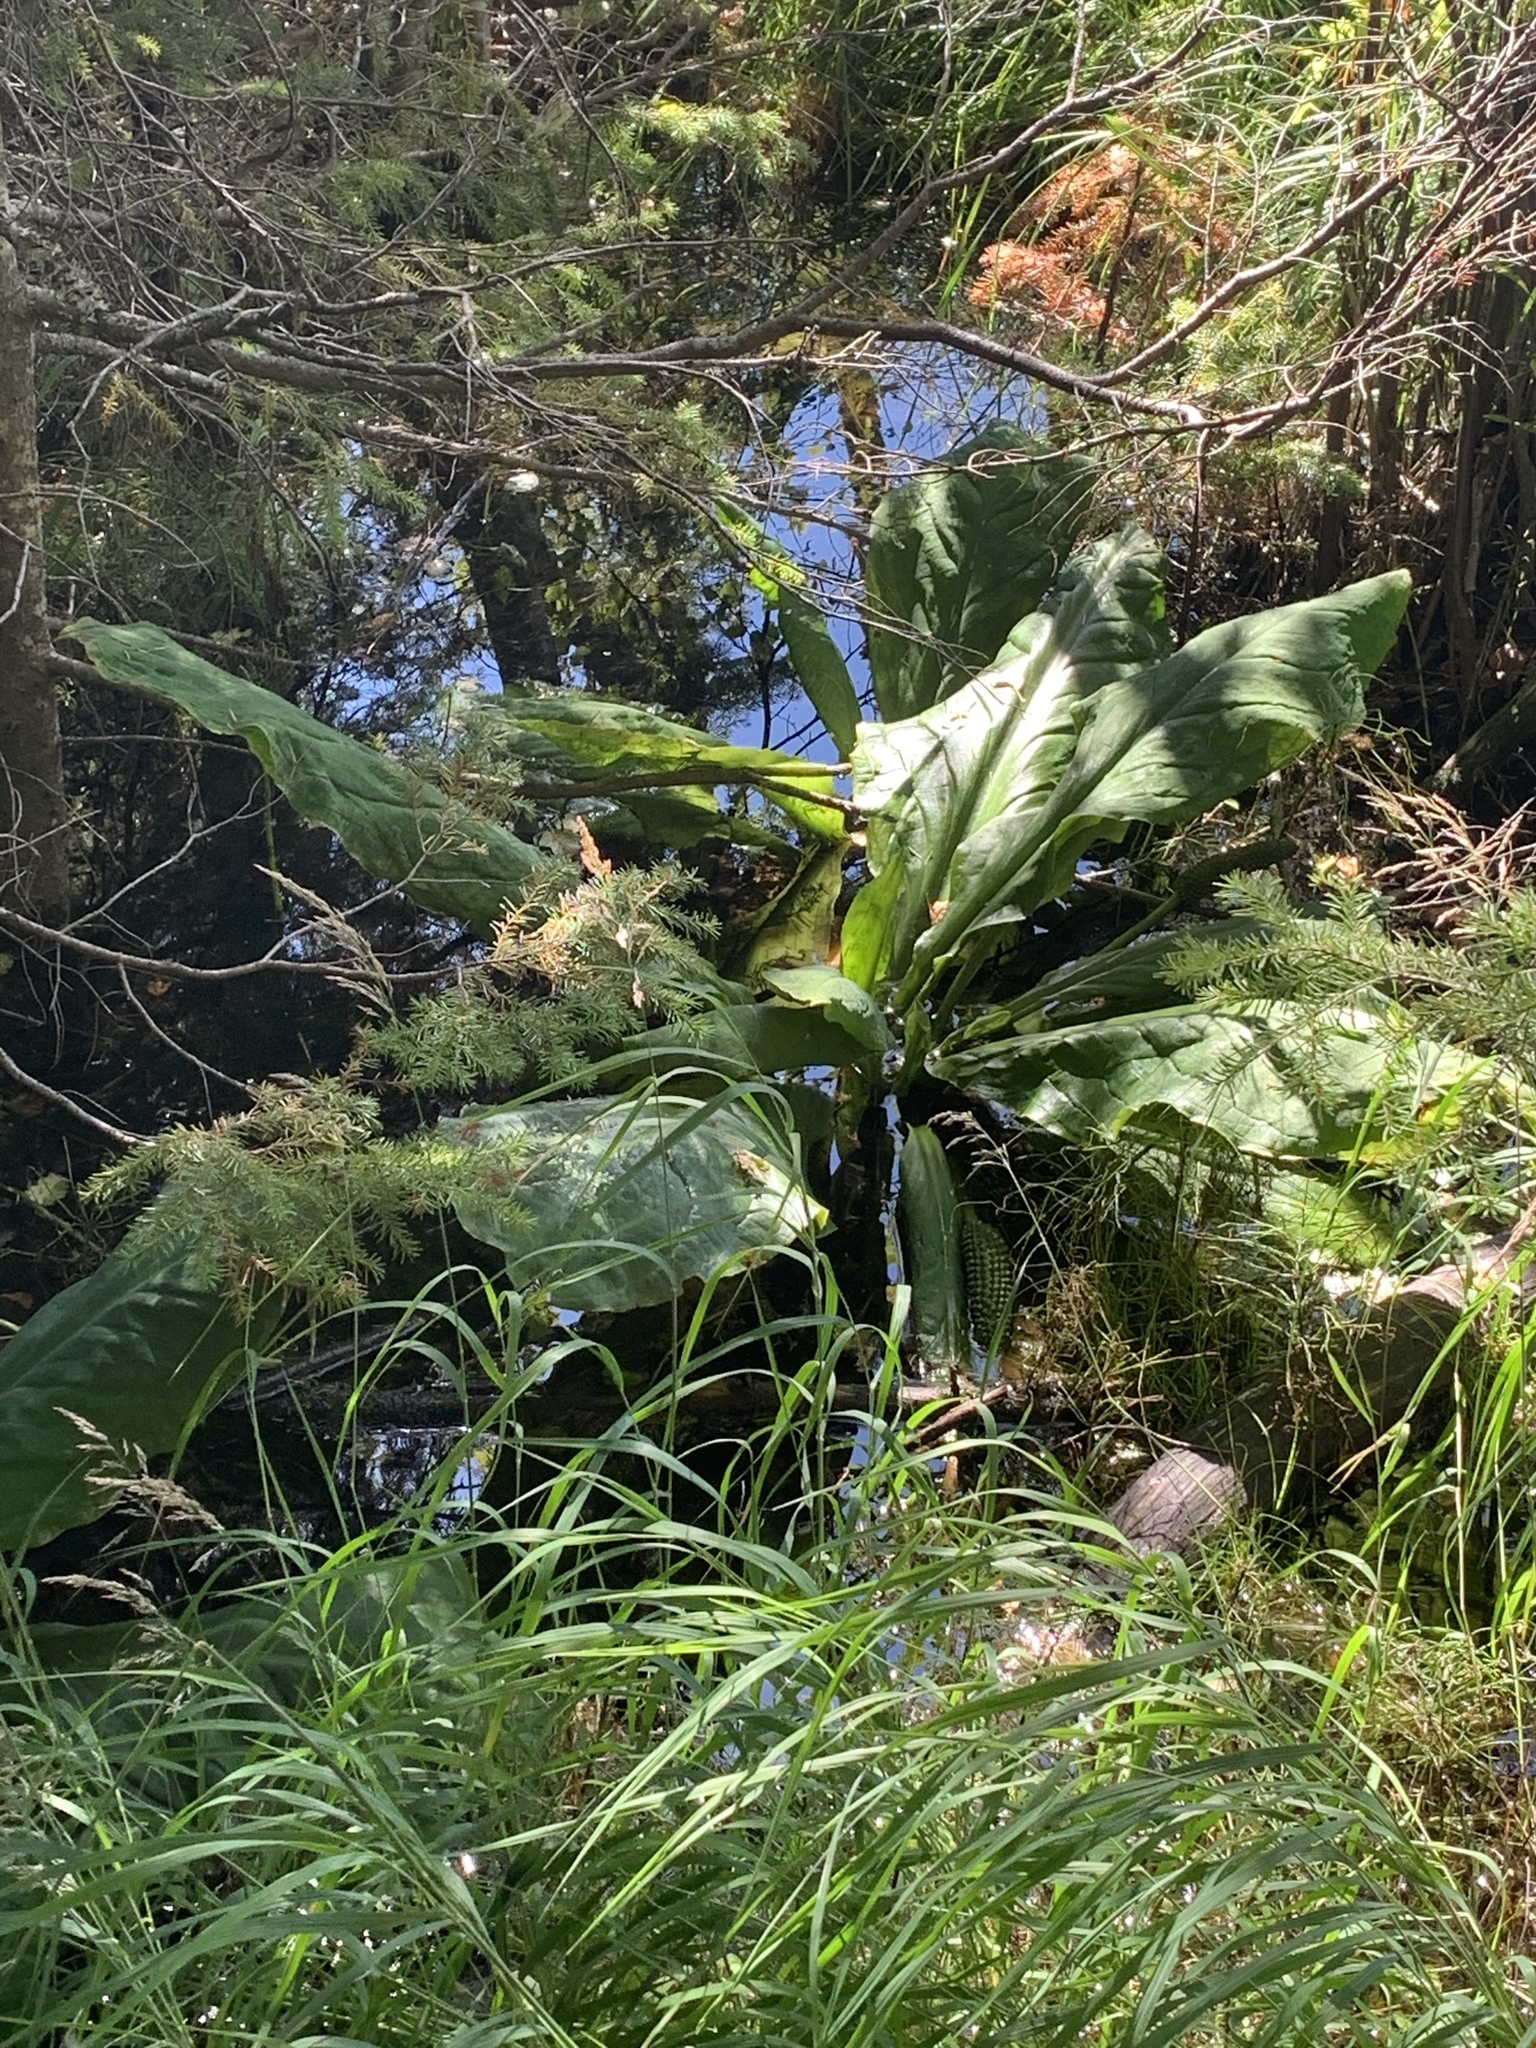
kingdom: Plantae
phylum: Tracheophyta
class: Liliopsida
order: Alismatales
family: Araceae
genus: Lysichiton
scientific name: Lysichiton americanus
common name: American skunk cabbage
